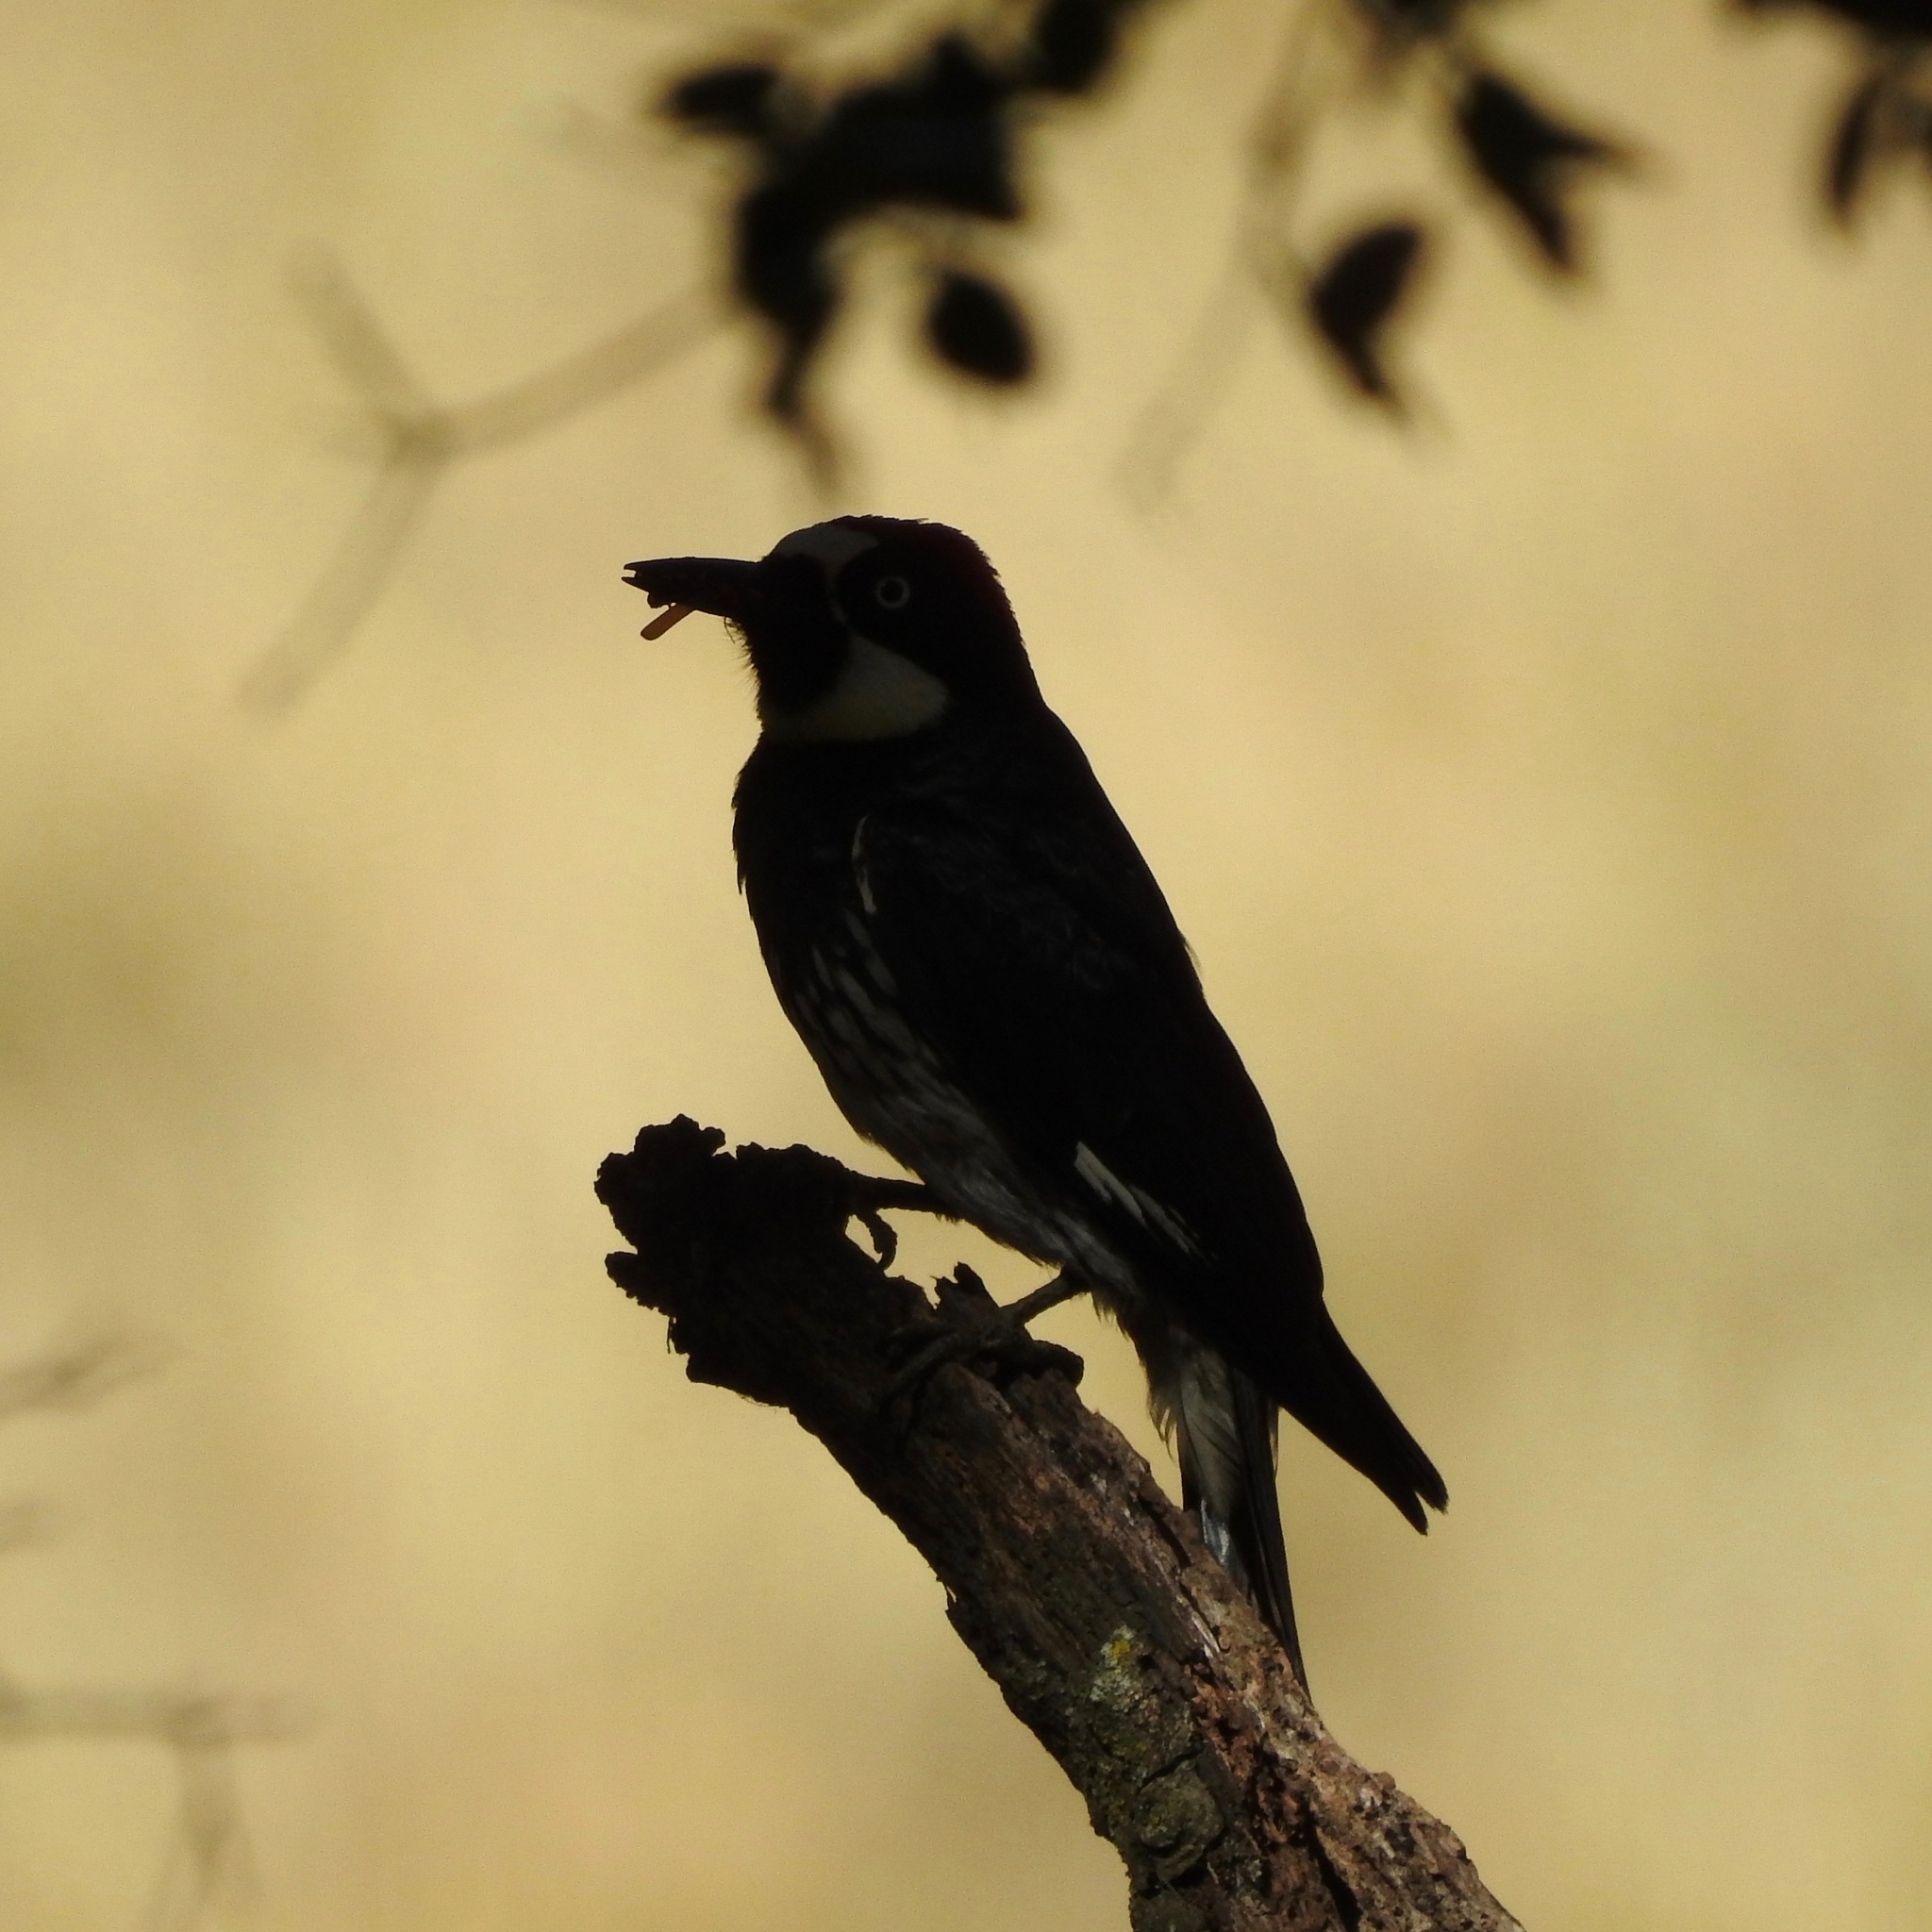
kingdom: Animalia
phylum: Chordata
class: Aves
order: Piciformes
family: Picidae
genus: Melanerpes
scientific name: Melanerpes formicivorus
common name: Acorn woodpecker
